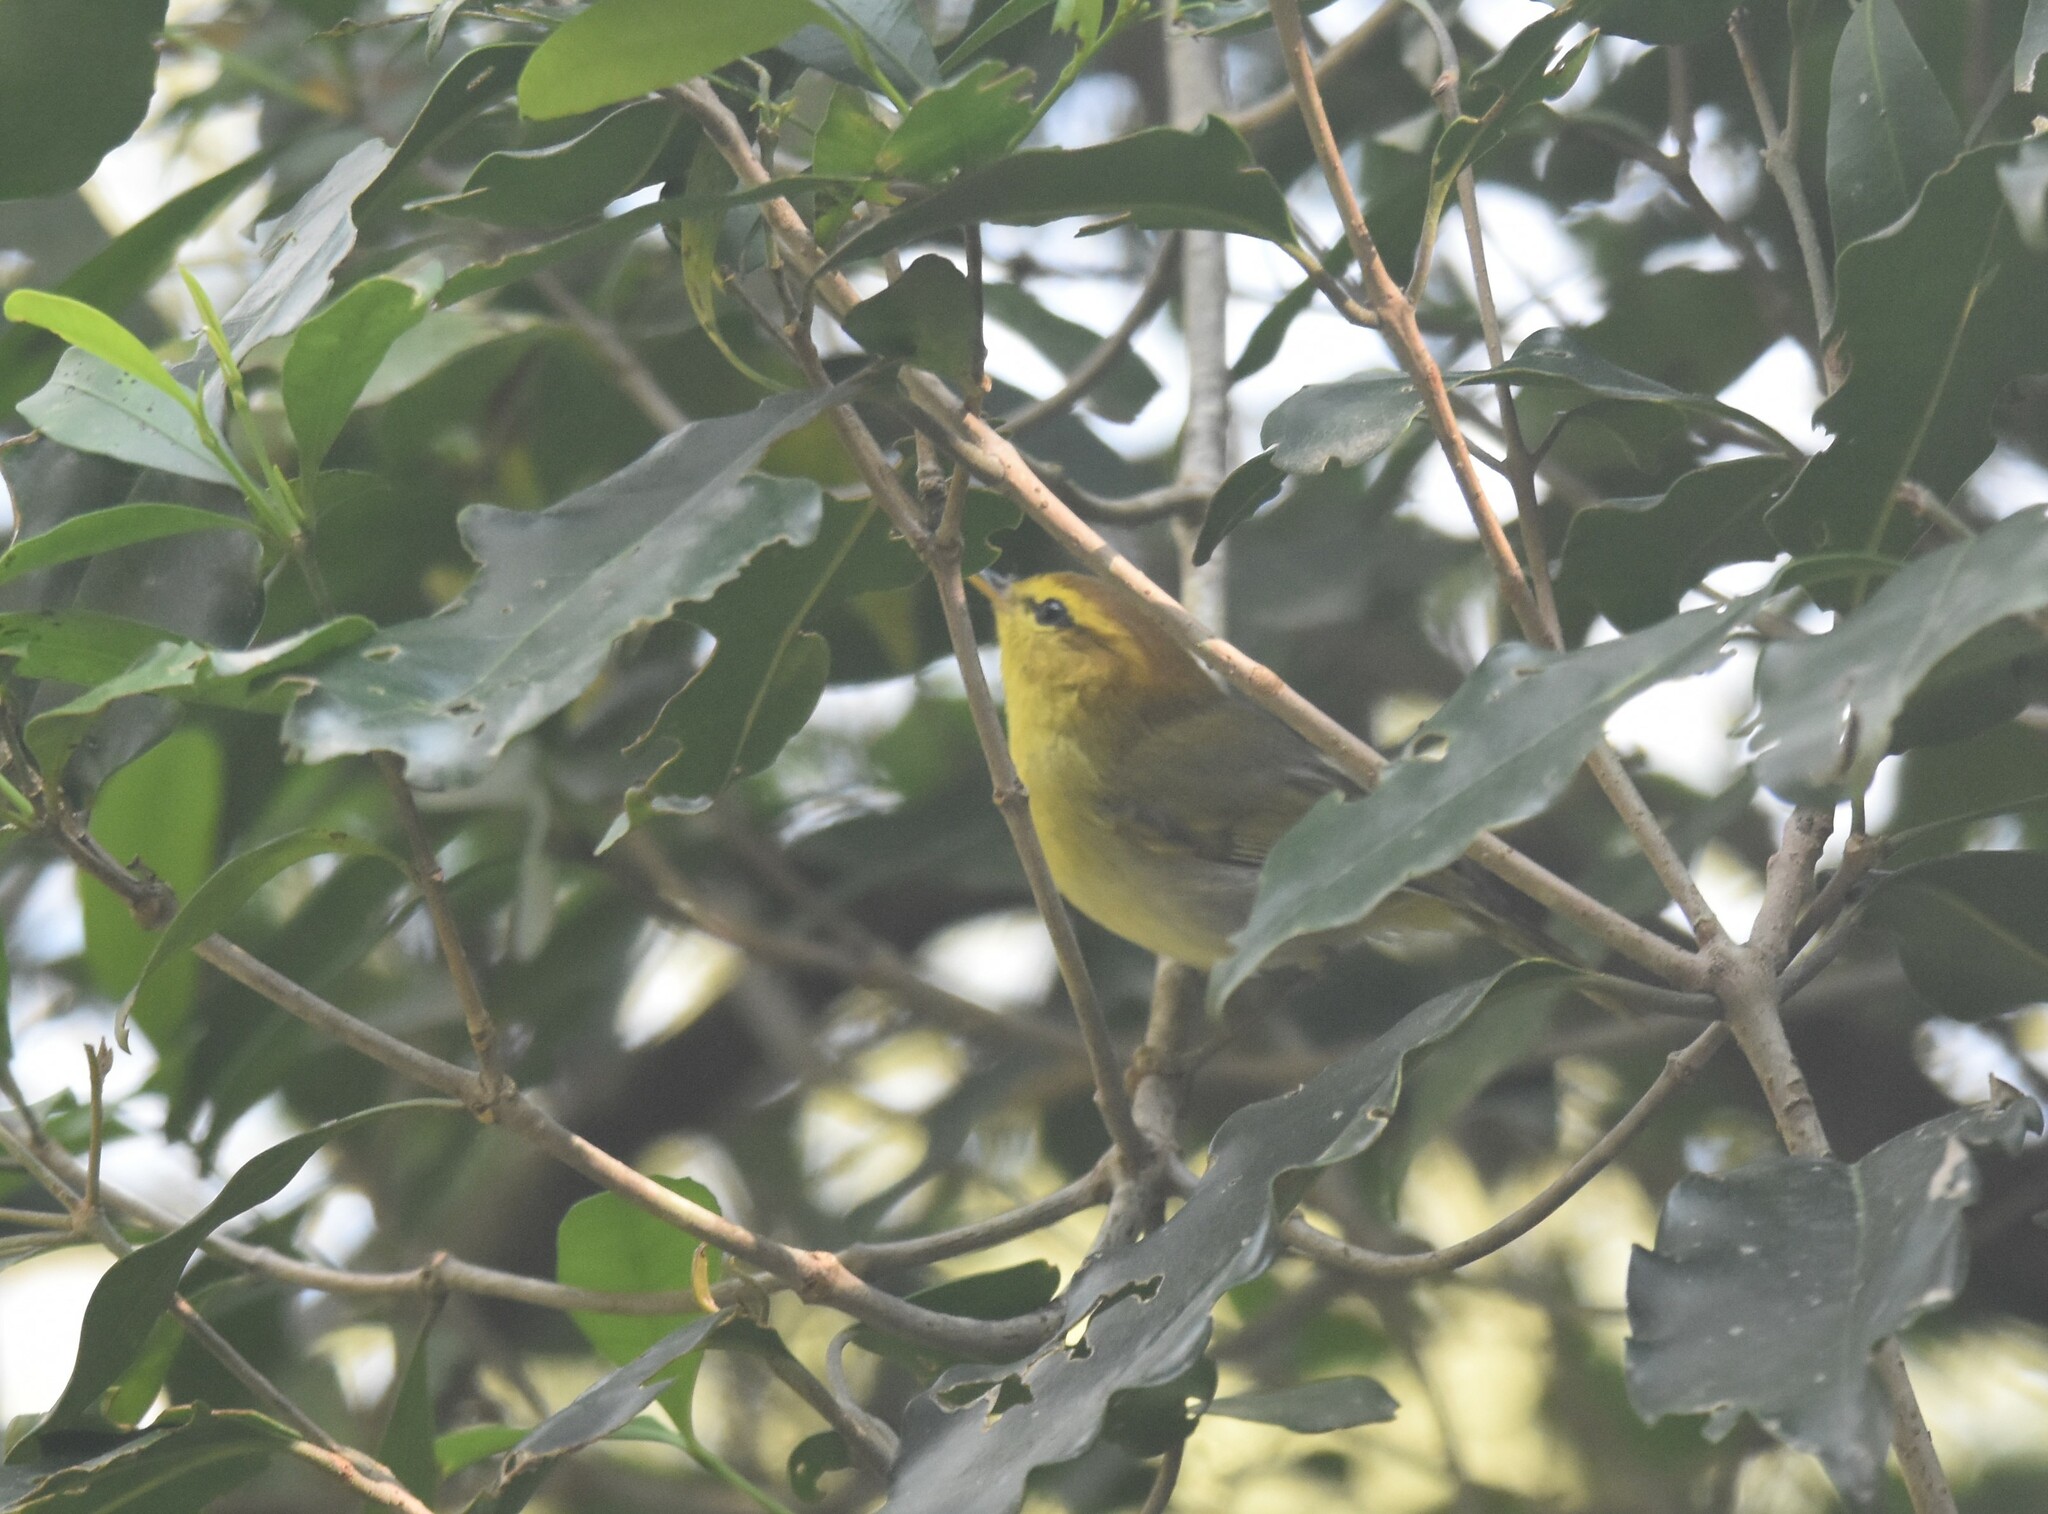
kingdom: Animalia
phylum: Chordata
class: Aves
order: Passeriformes
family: Phylloscopidae
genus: Phylloscopus
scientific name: Phylloscopus ruficapilla
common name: Yellow-throated woodland warbler
